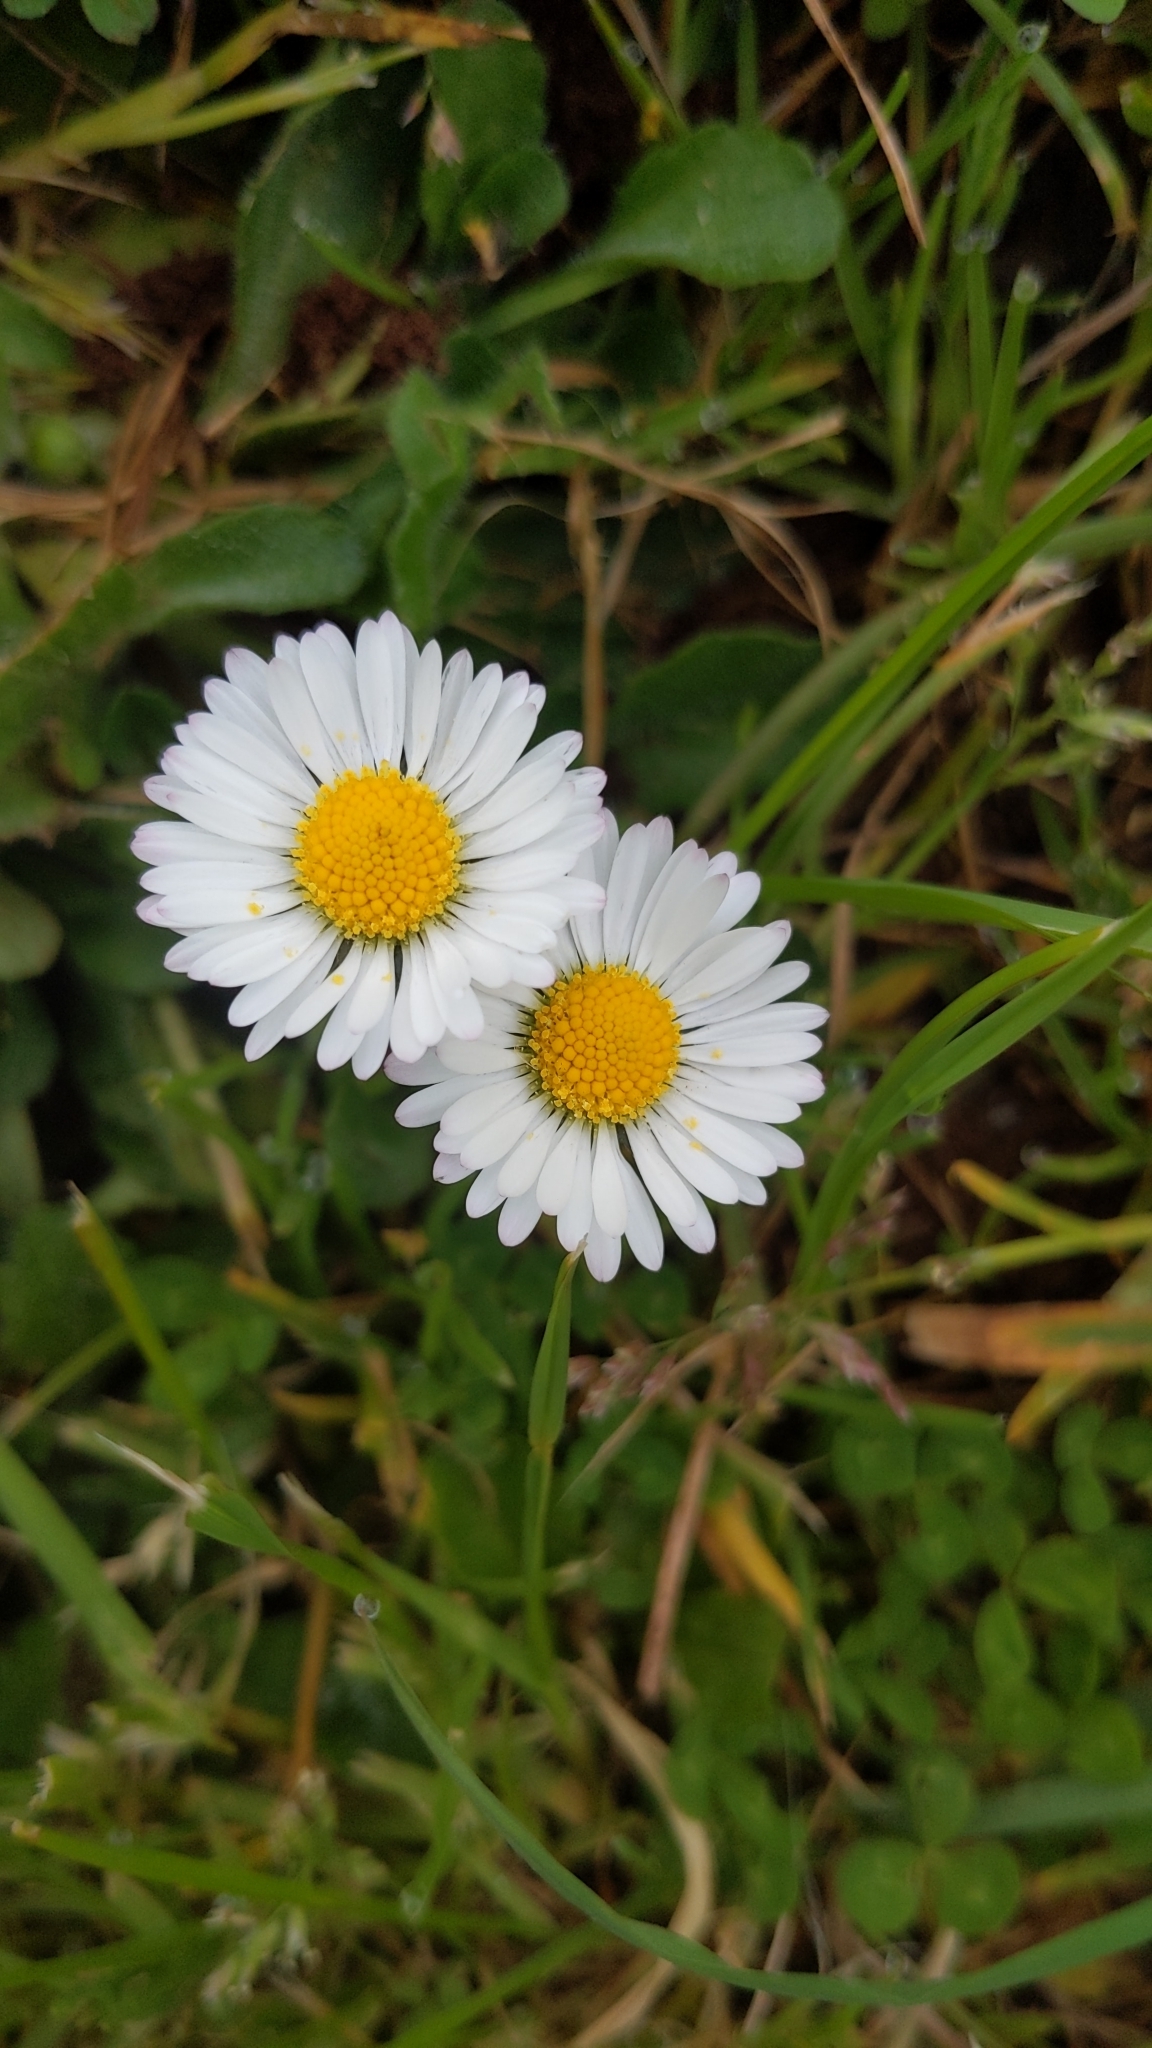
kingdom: Plantae
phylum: Tracheophyta
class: Magnoliopsida
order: Asterales
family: Asteraceae
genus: Bellis
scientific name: Bellis perennis
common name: Lawndaisy
